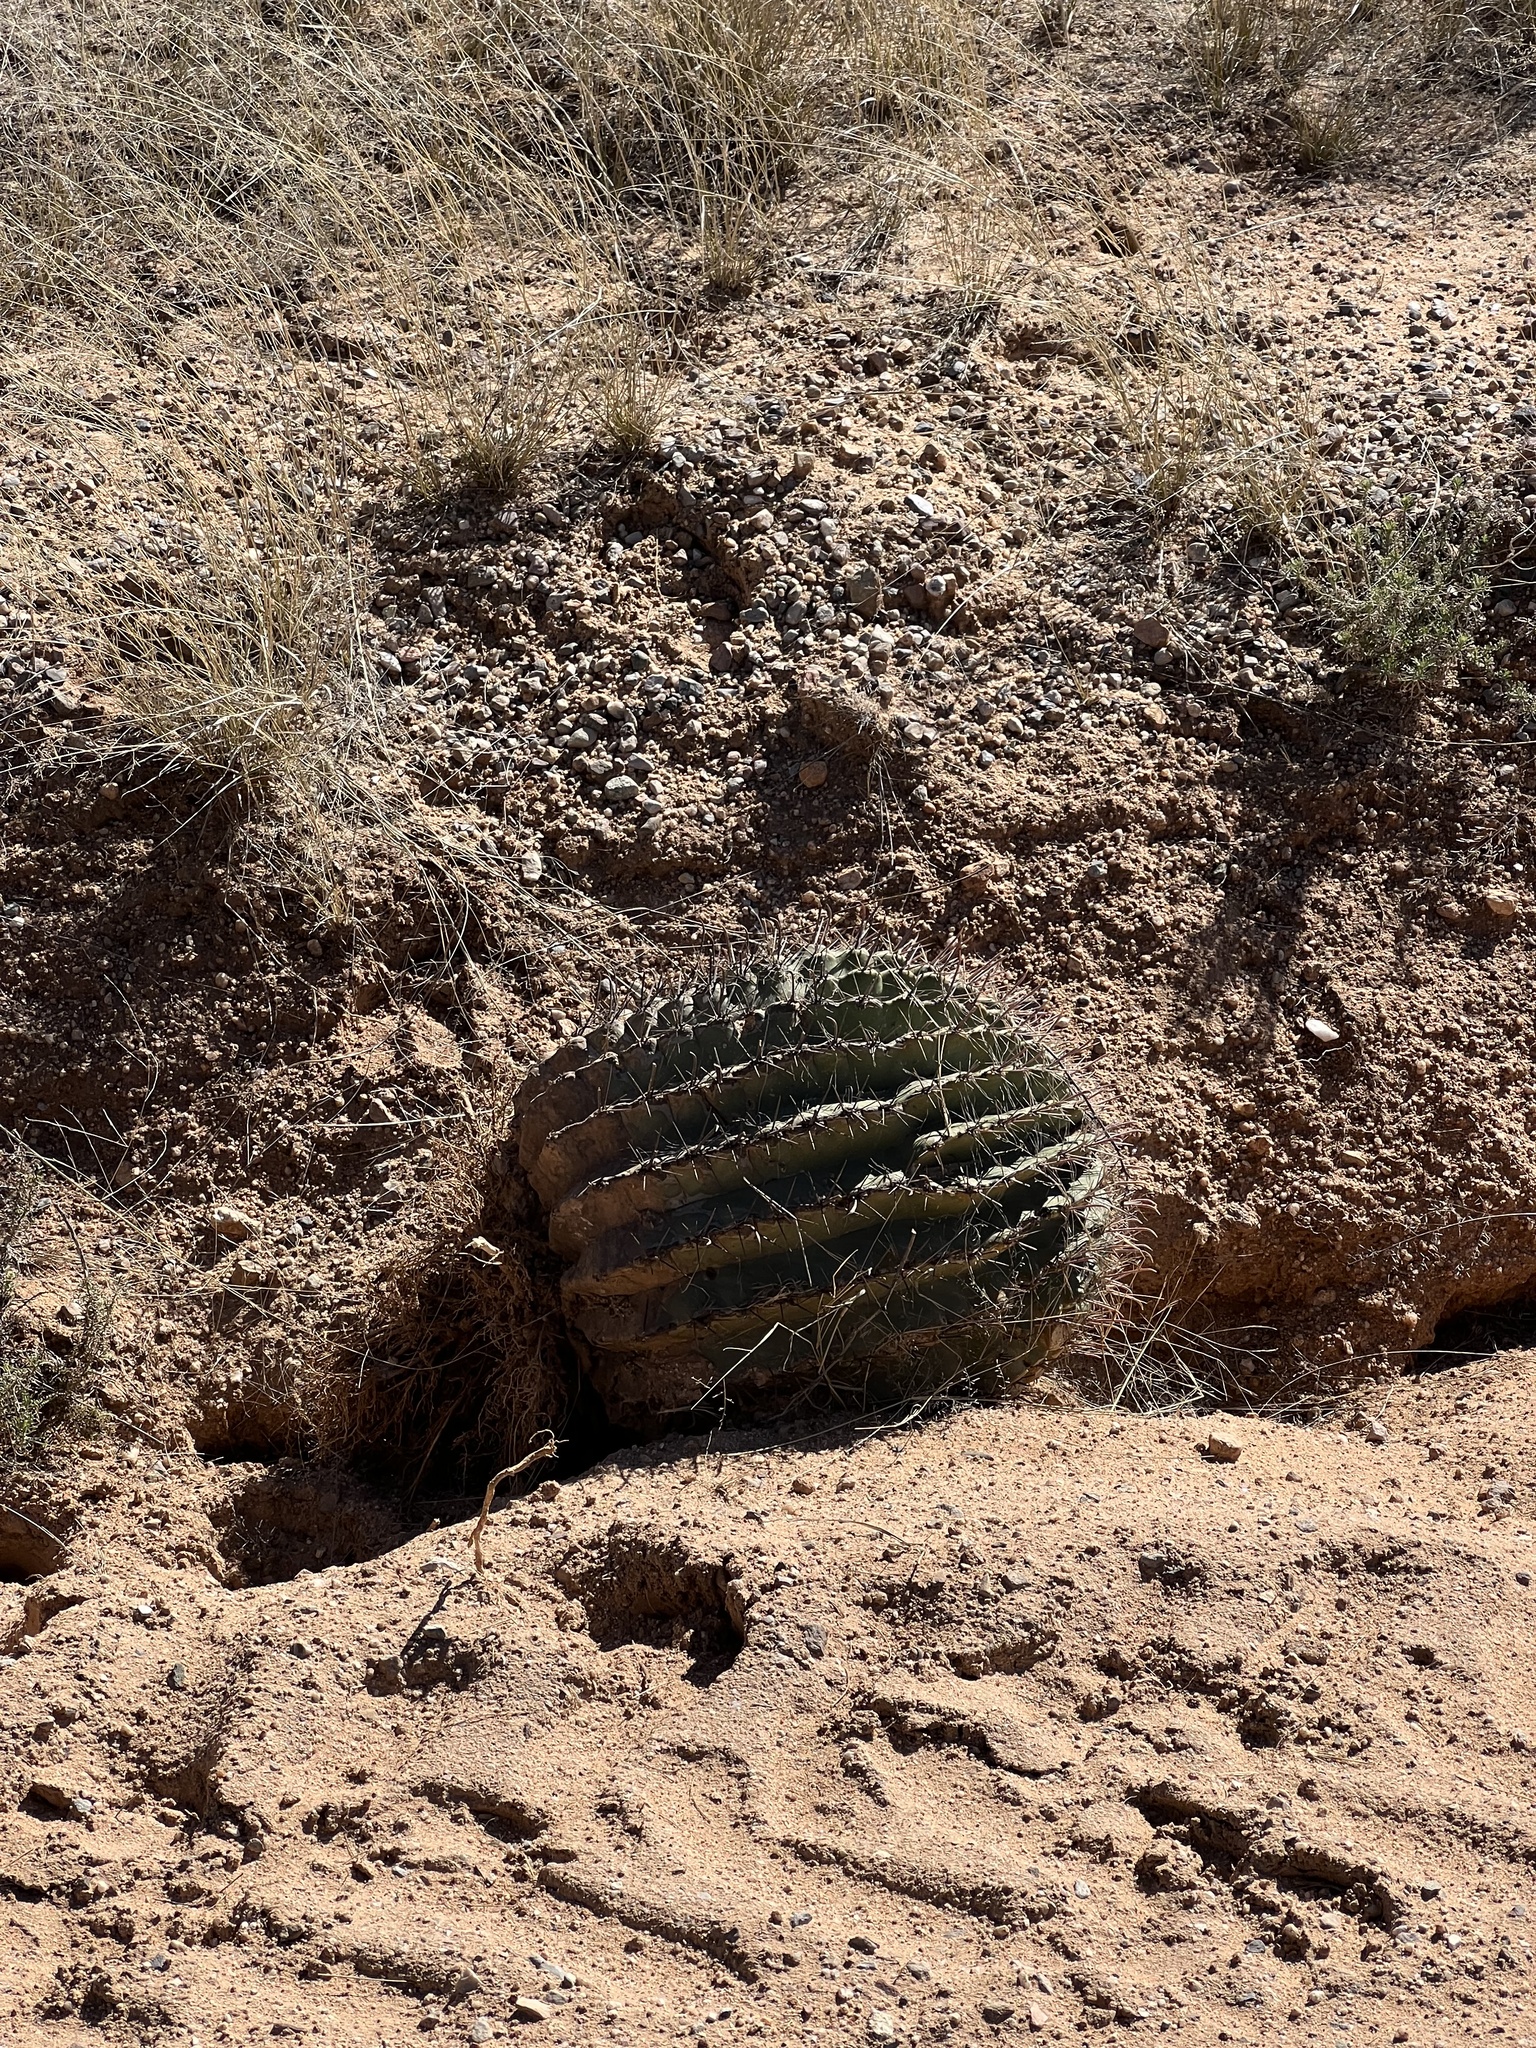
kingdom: Plantae
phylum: Tracheophyta
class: Magnoliopsida
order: Caryophyllales
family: Cactaceae
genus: Ferocactus
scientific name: Ferocactus wislizeni
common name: Candy barrel cactus
